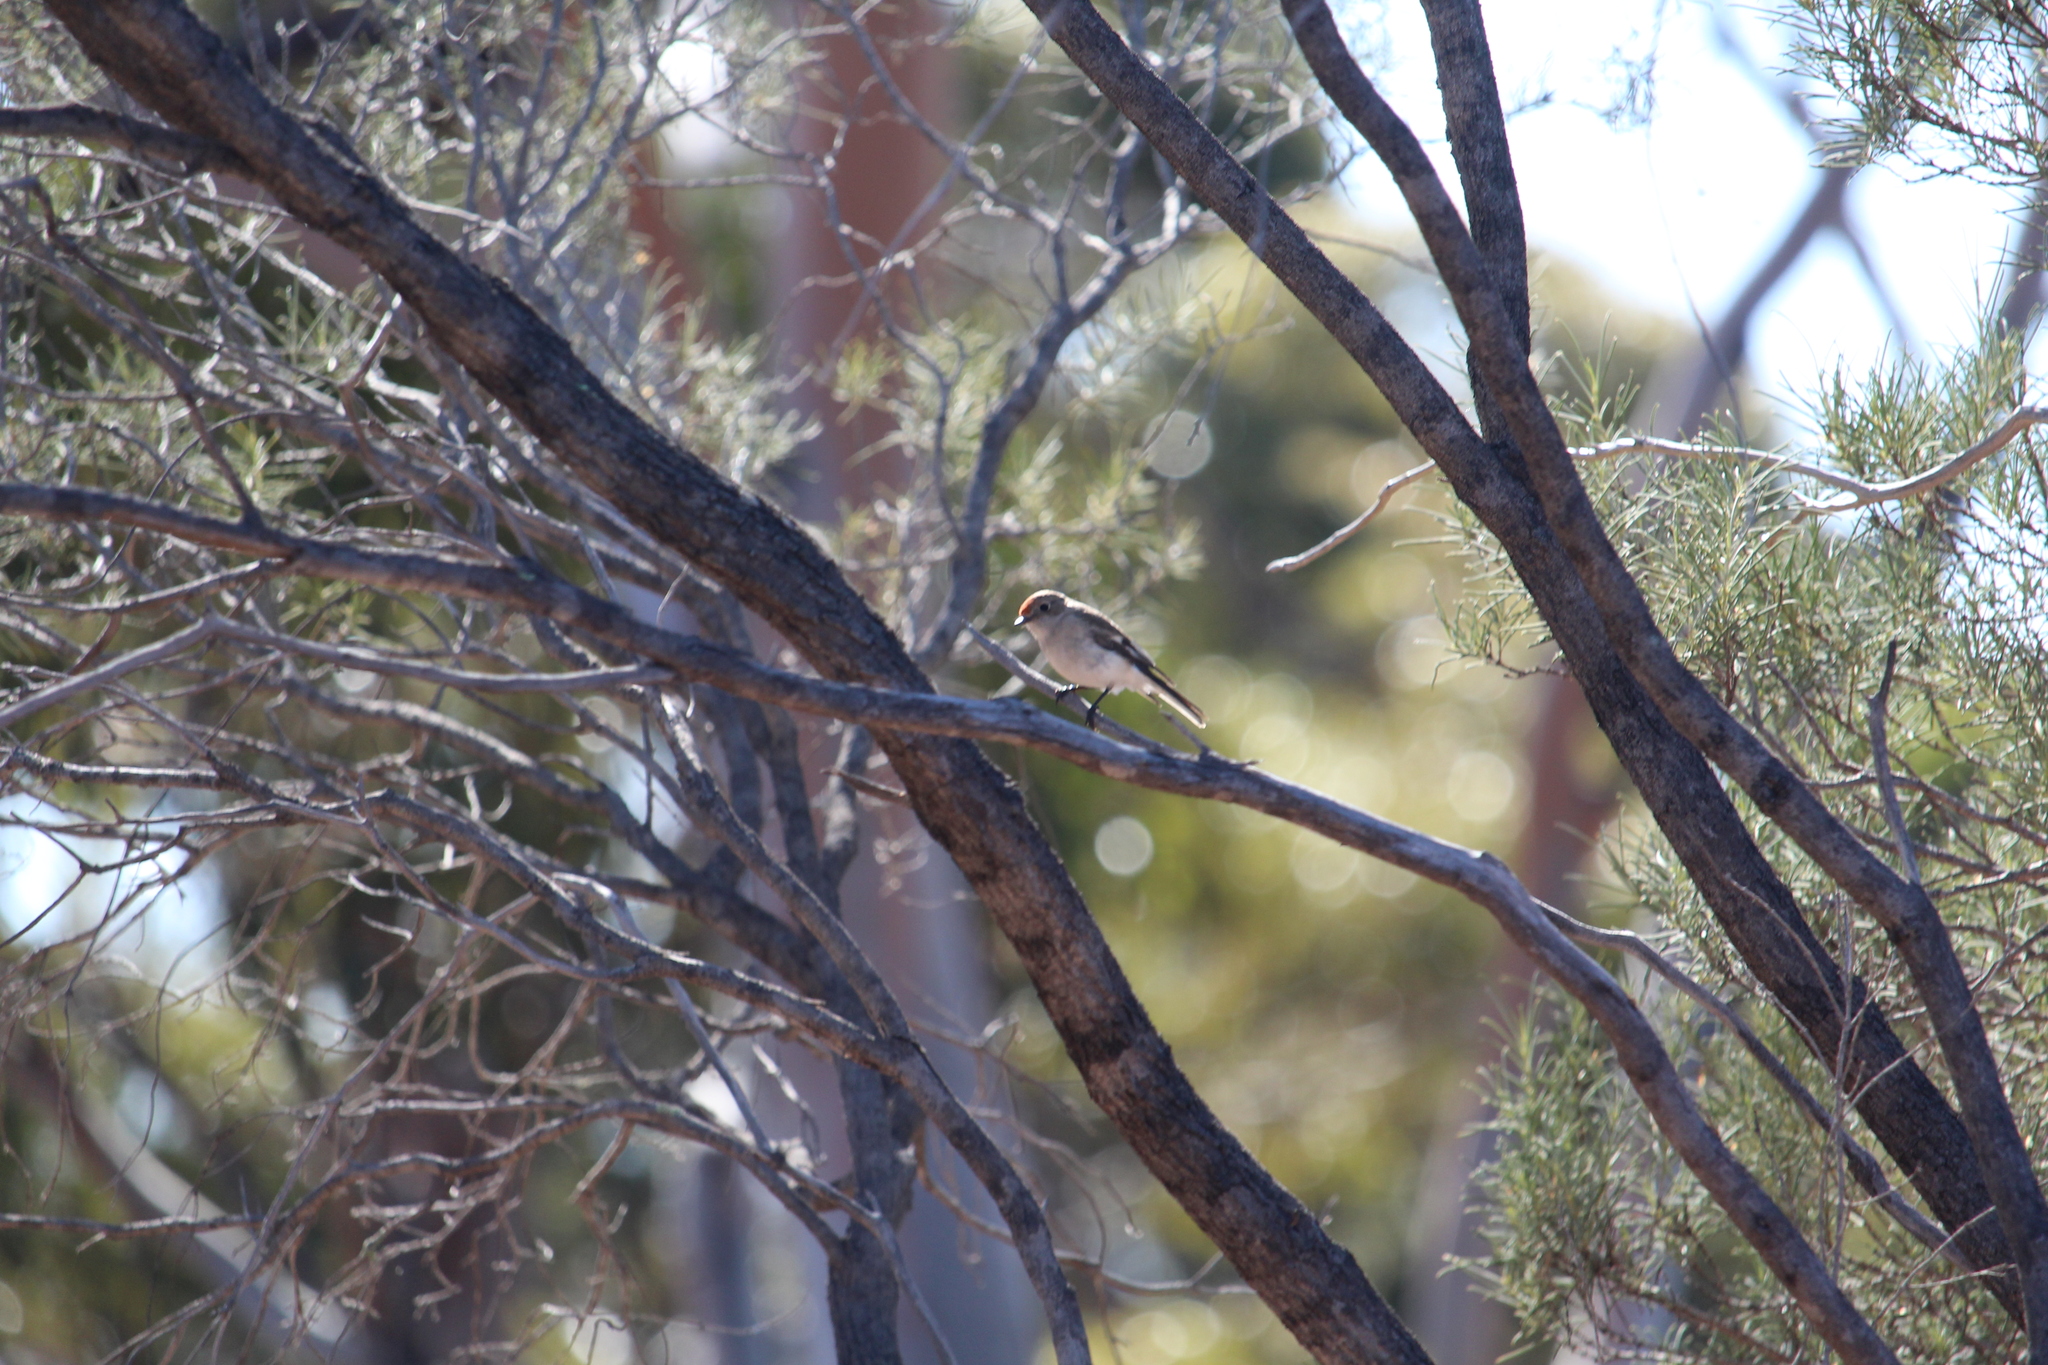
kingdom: Animalia
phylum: Chordata
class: Aves
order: Passeriformes
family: Petroicidae
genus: Petroica
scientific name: Petroica goodenovii
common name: Red-capped robin
